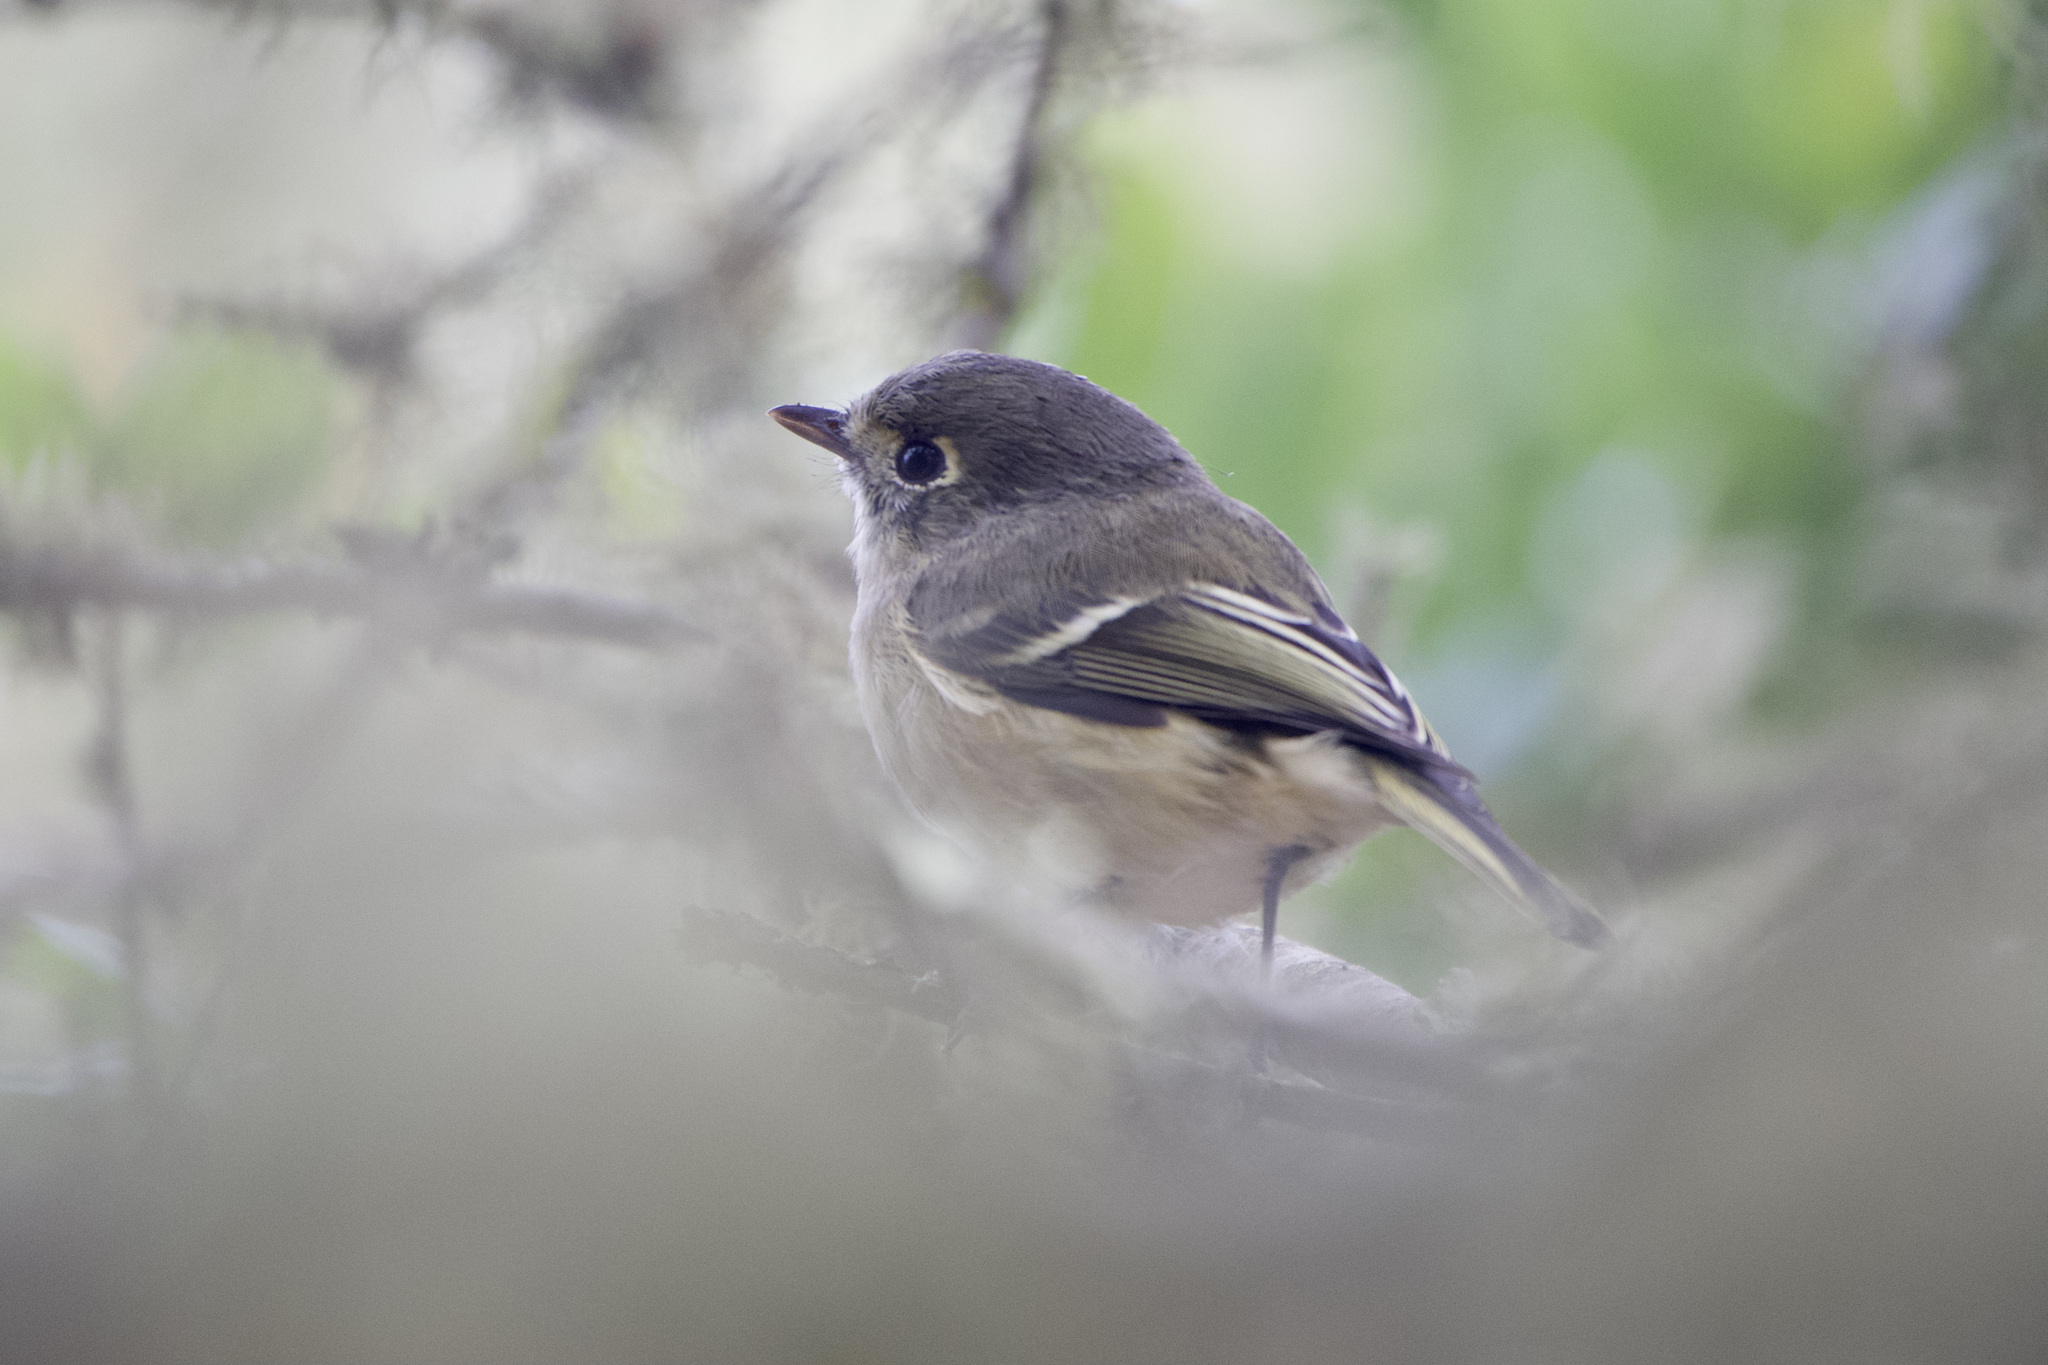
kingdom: Animalia
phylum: Chordata
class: Aves
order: Passeriformes
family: Vireonidae
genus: Vireo
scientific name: Vireo huttoni
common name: Hutton's vireo
